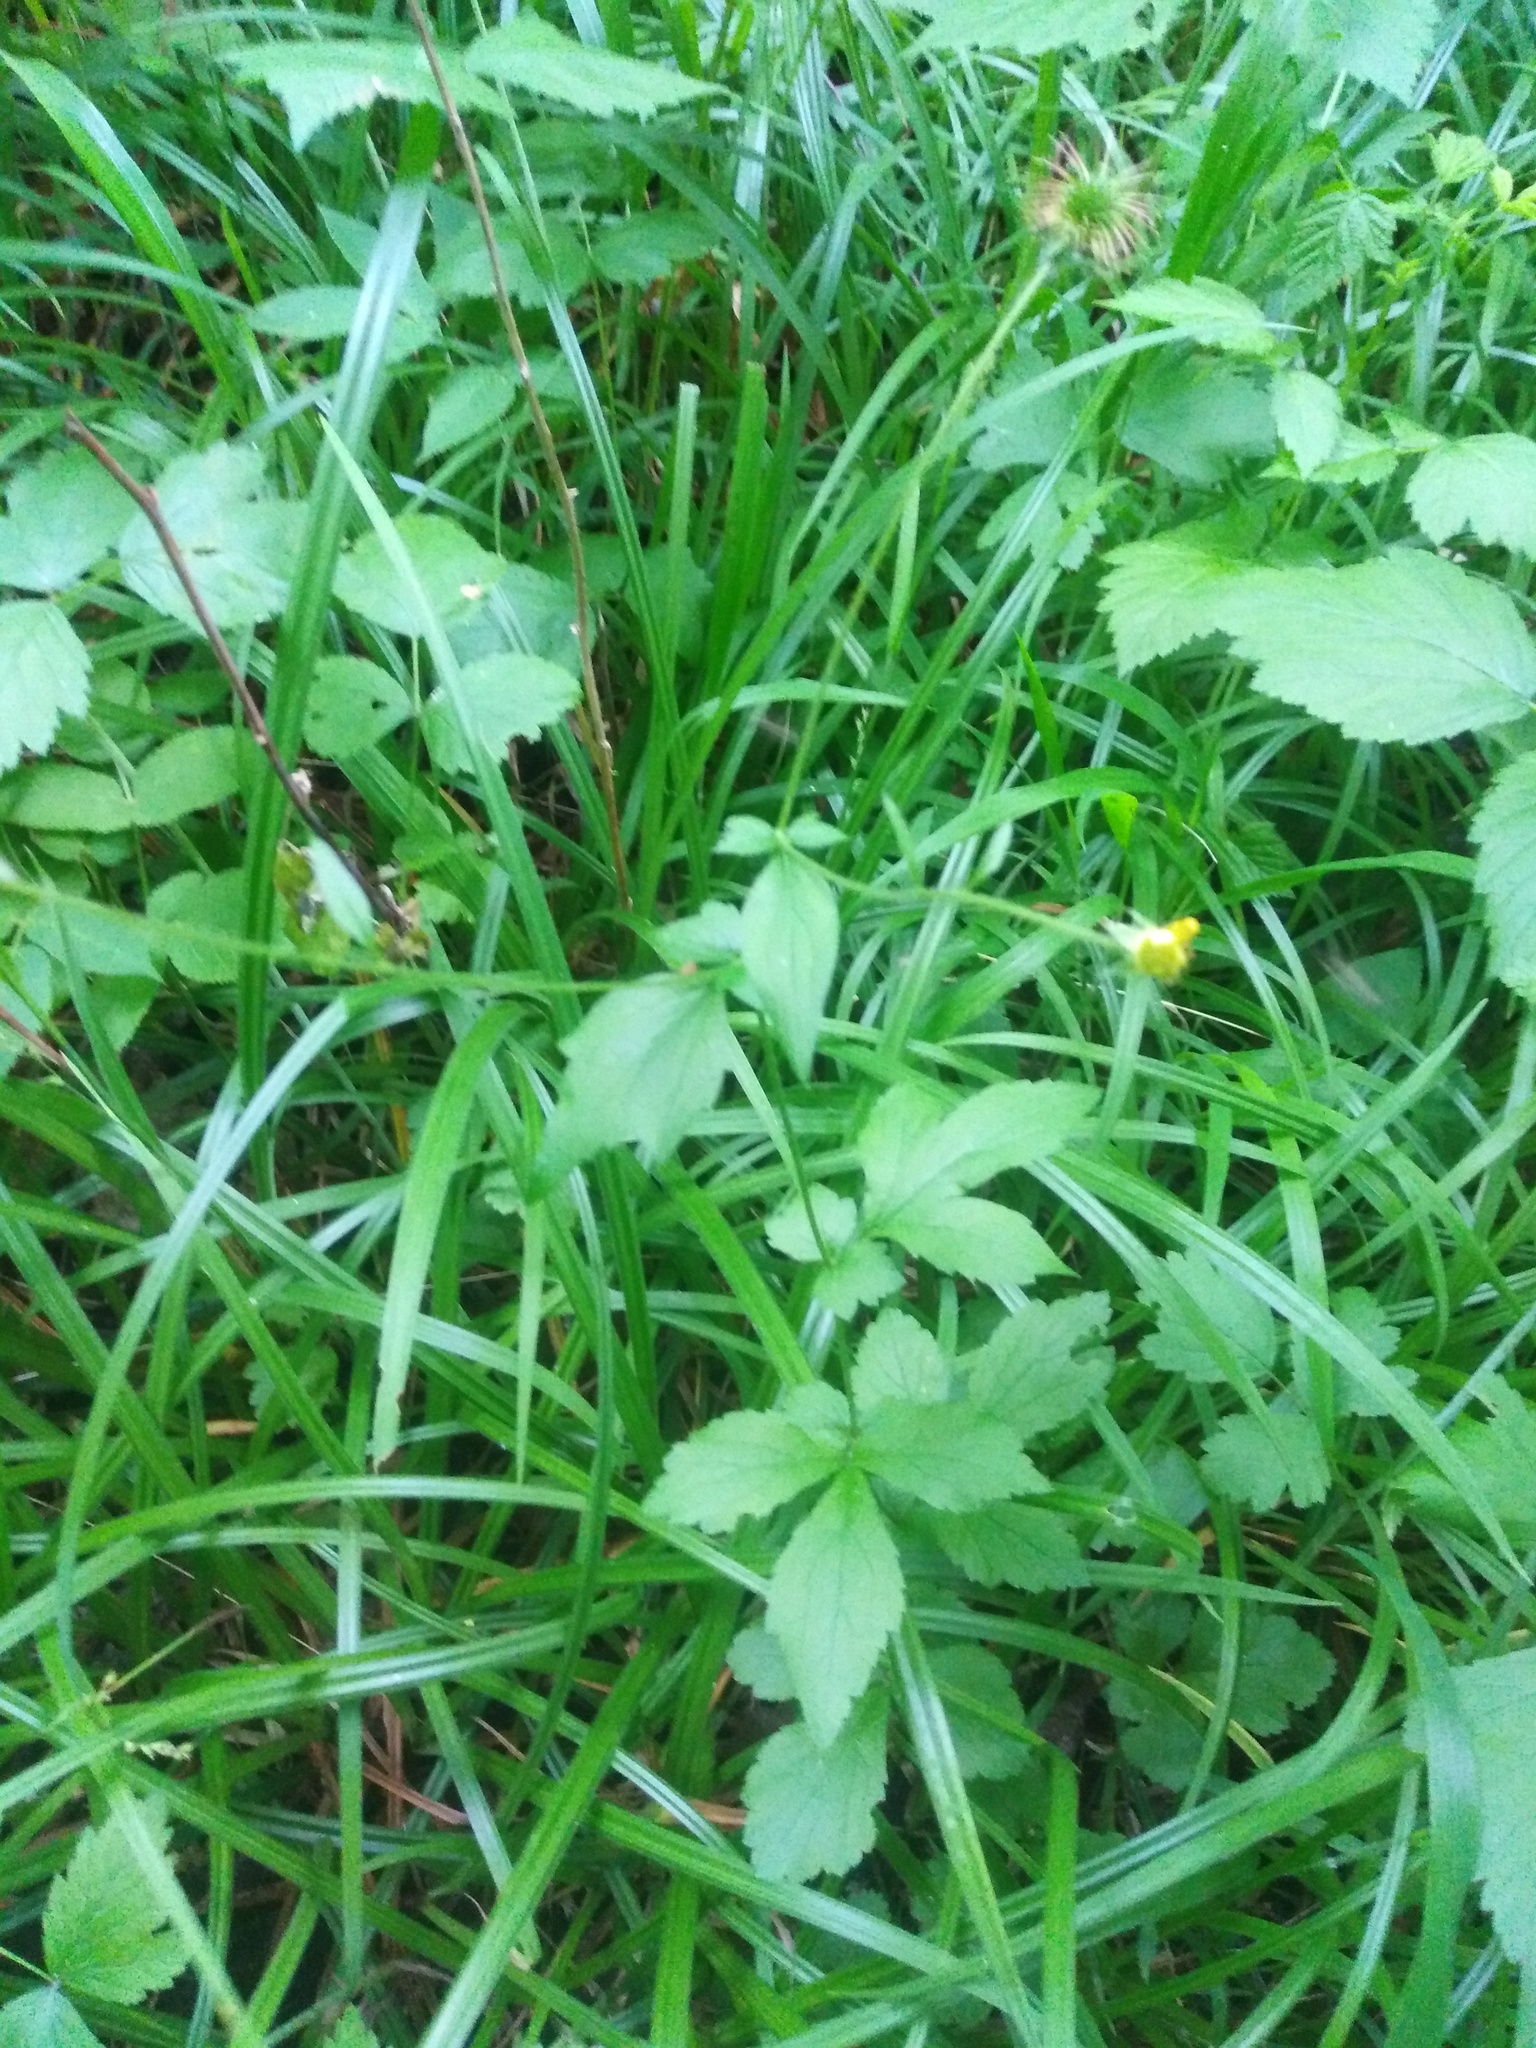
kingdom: Plantae
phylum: Tracheophyta
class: Magnoliopsida
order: Rosales
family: Rosaceae
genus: Geum
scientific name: Geum urbanum
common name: Wood avens
